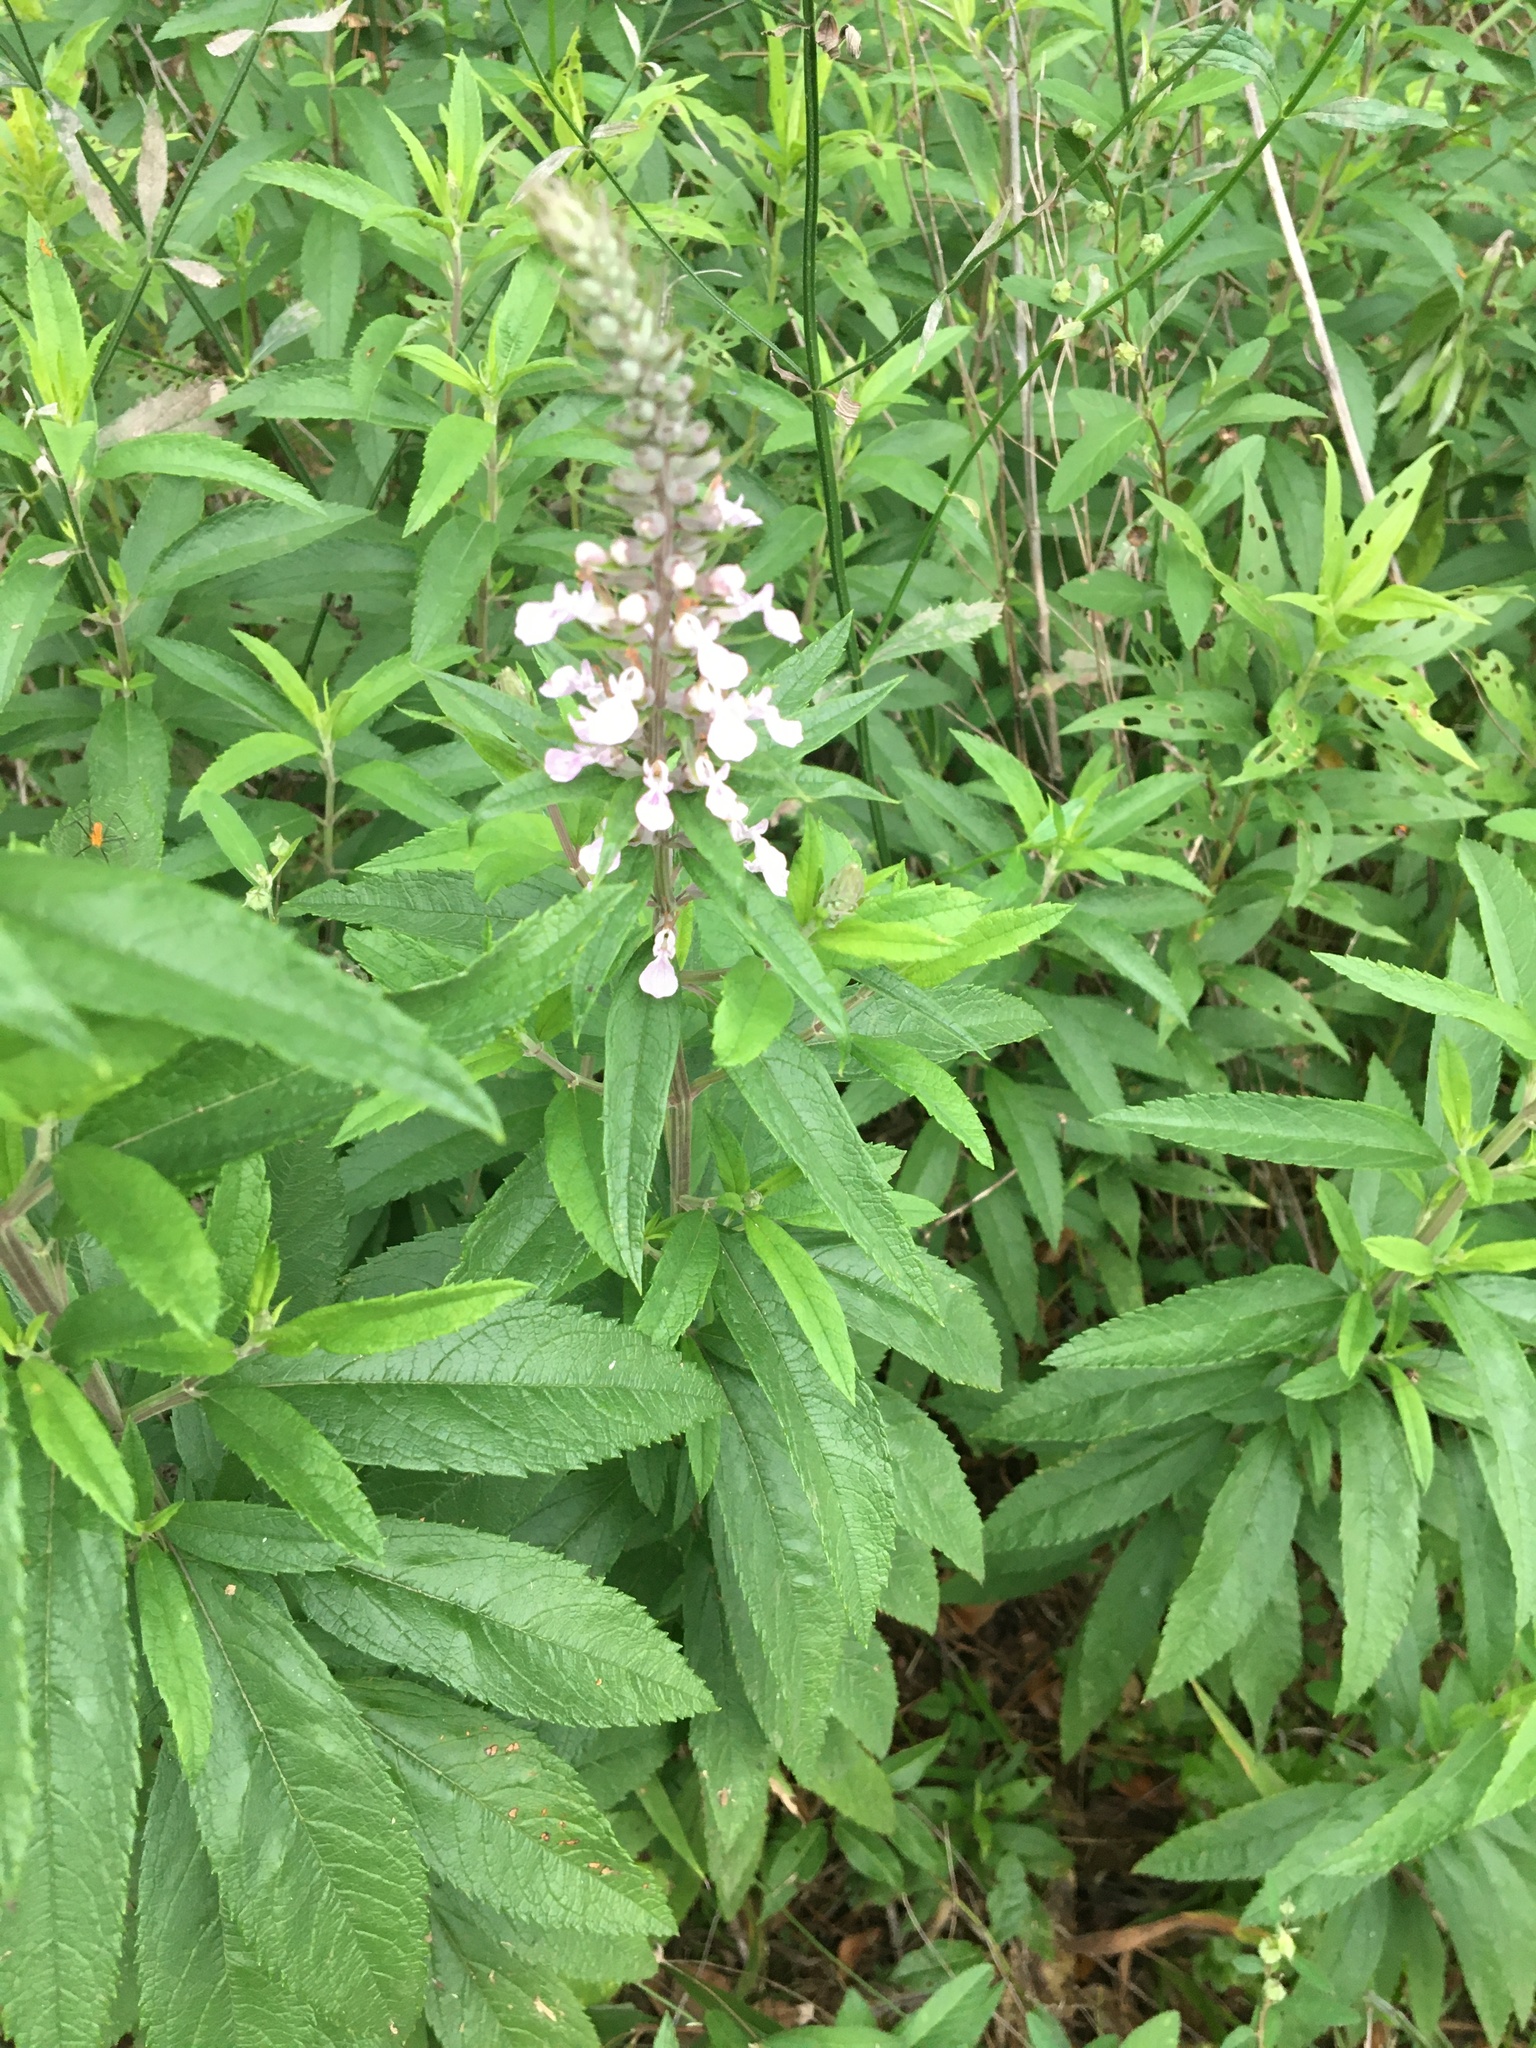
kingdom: Plantae
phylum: Tracheophyta
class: Magnoliopsida
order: Lamiales
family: Lamiaceae
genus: Teucrium
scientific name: Teucrium canadense
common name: American germander
